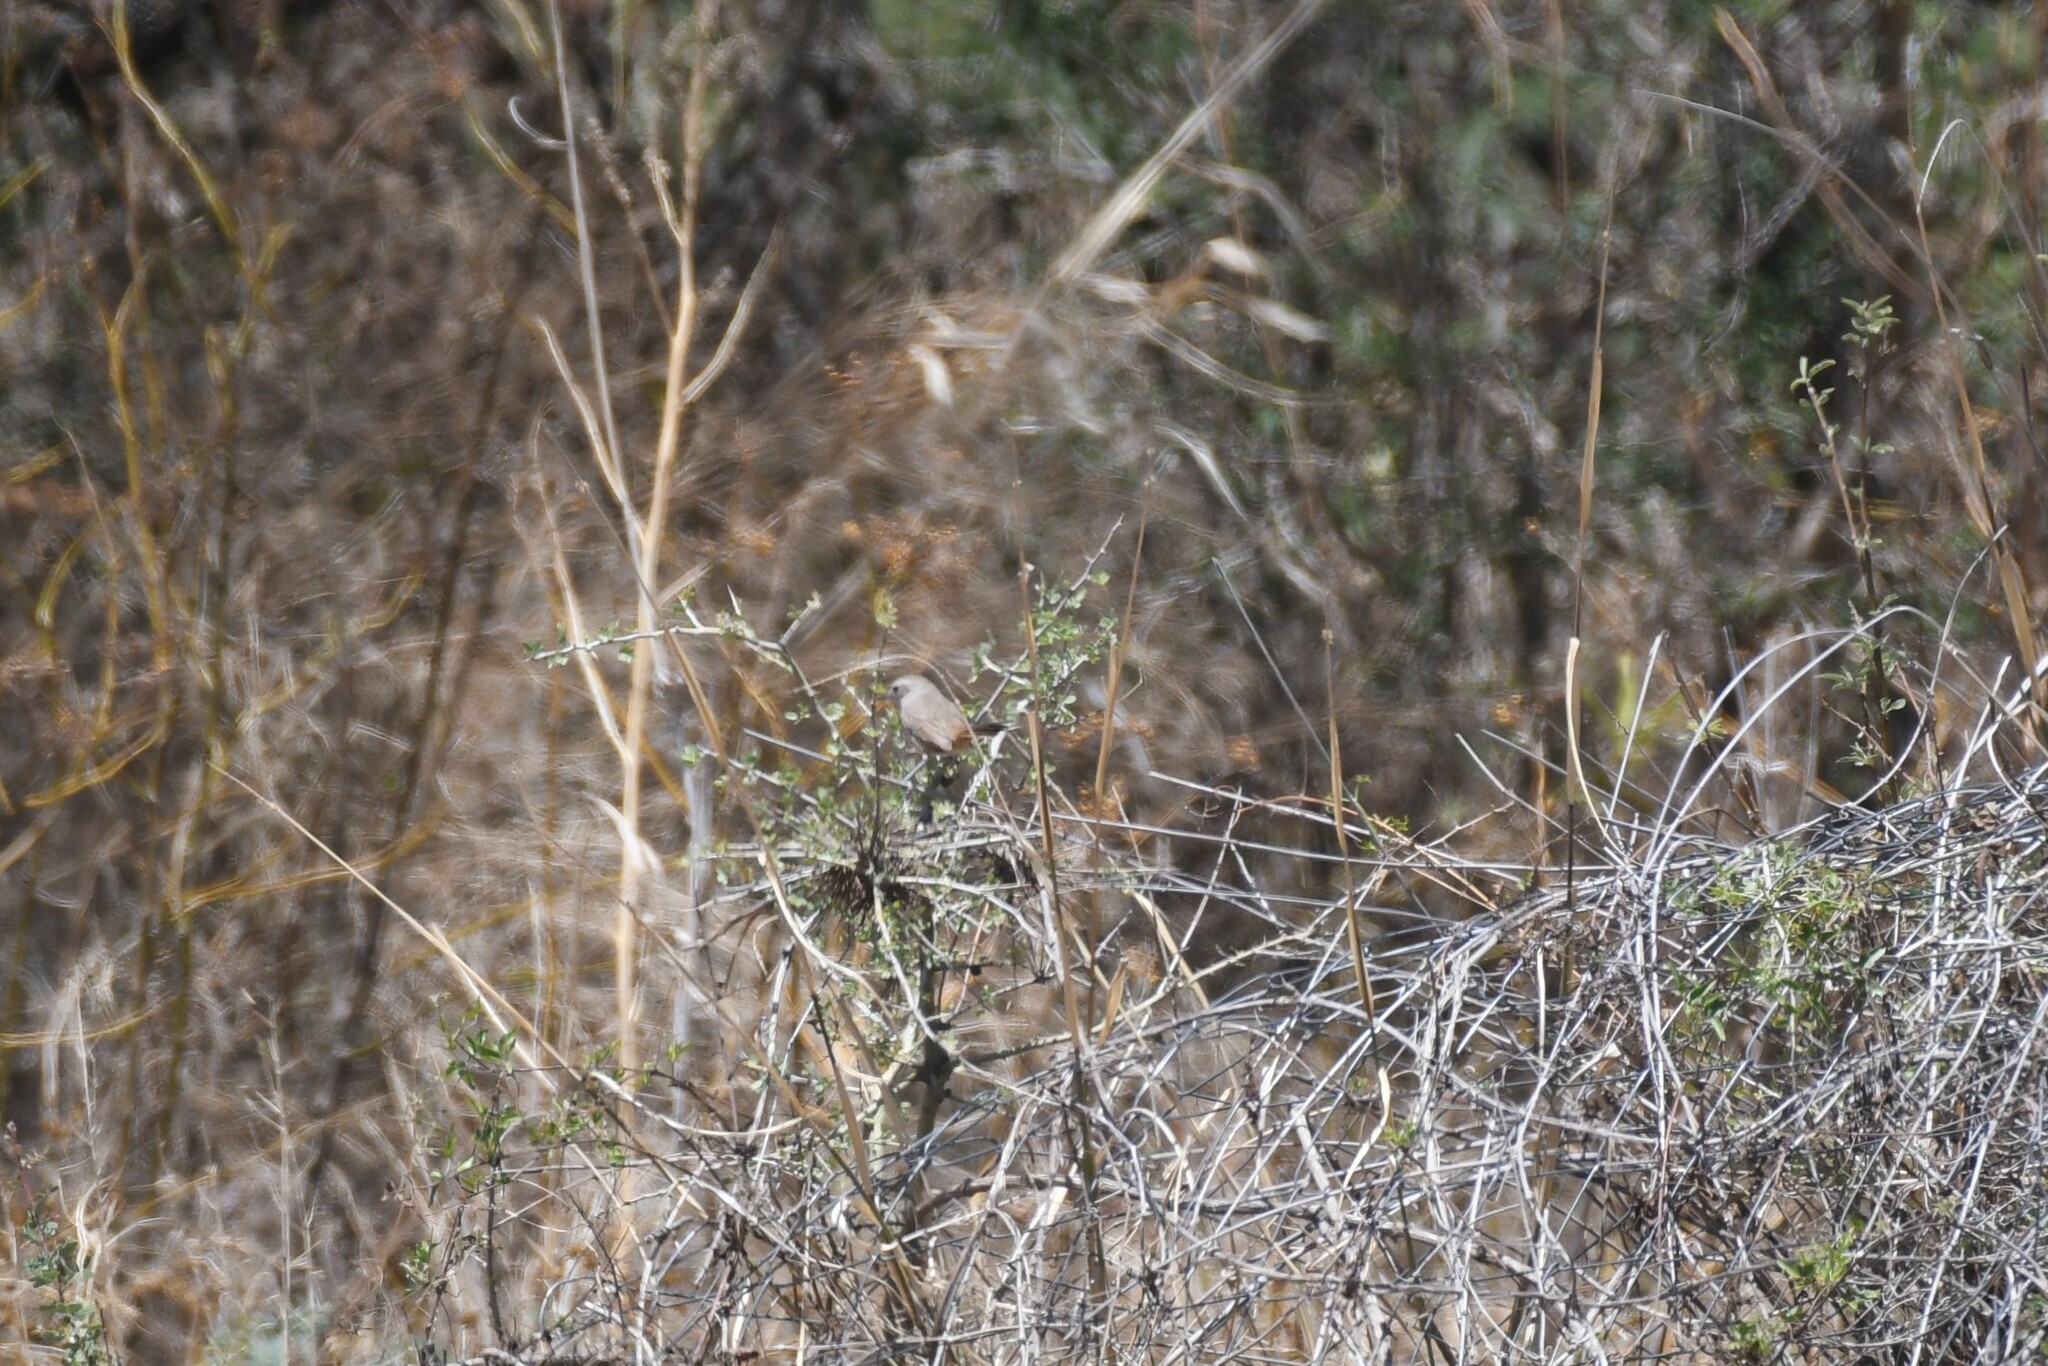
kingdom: Animalia
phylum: Chordata
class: Aves
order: Passeriformes
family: Furnariidae
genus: Asthenes
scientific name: Asthenes baeri
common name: Short-billed canastero
